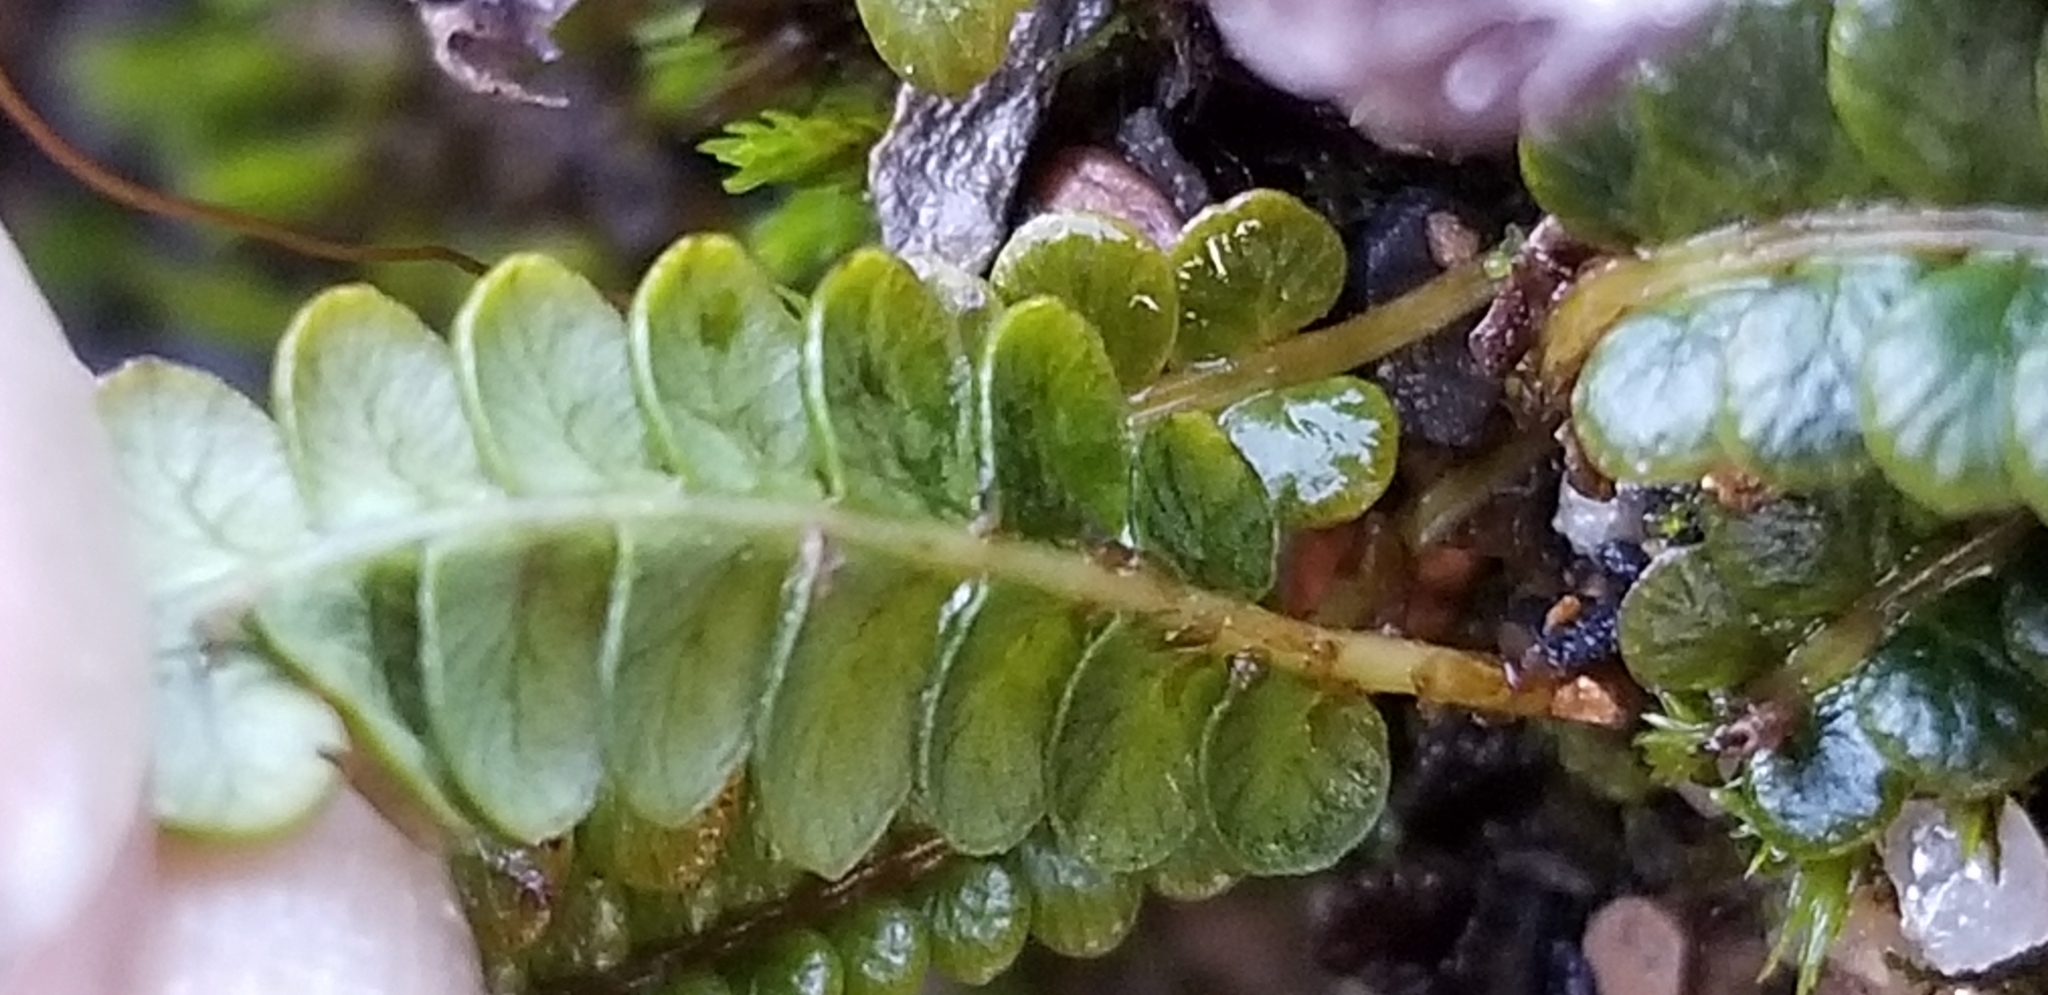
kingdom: Plantae
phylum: Tracheophyta
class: Polypodiopsida
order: Polypodiales
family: Blechnaceae
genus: Austroblechnum
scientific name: Austroblechnum penna-marina
